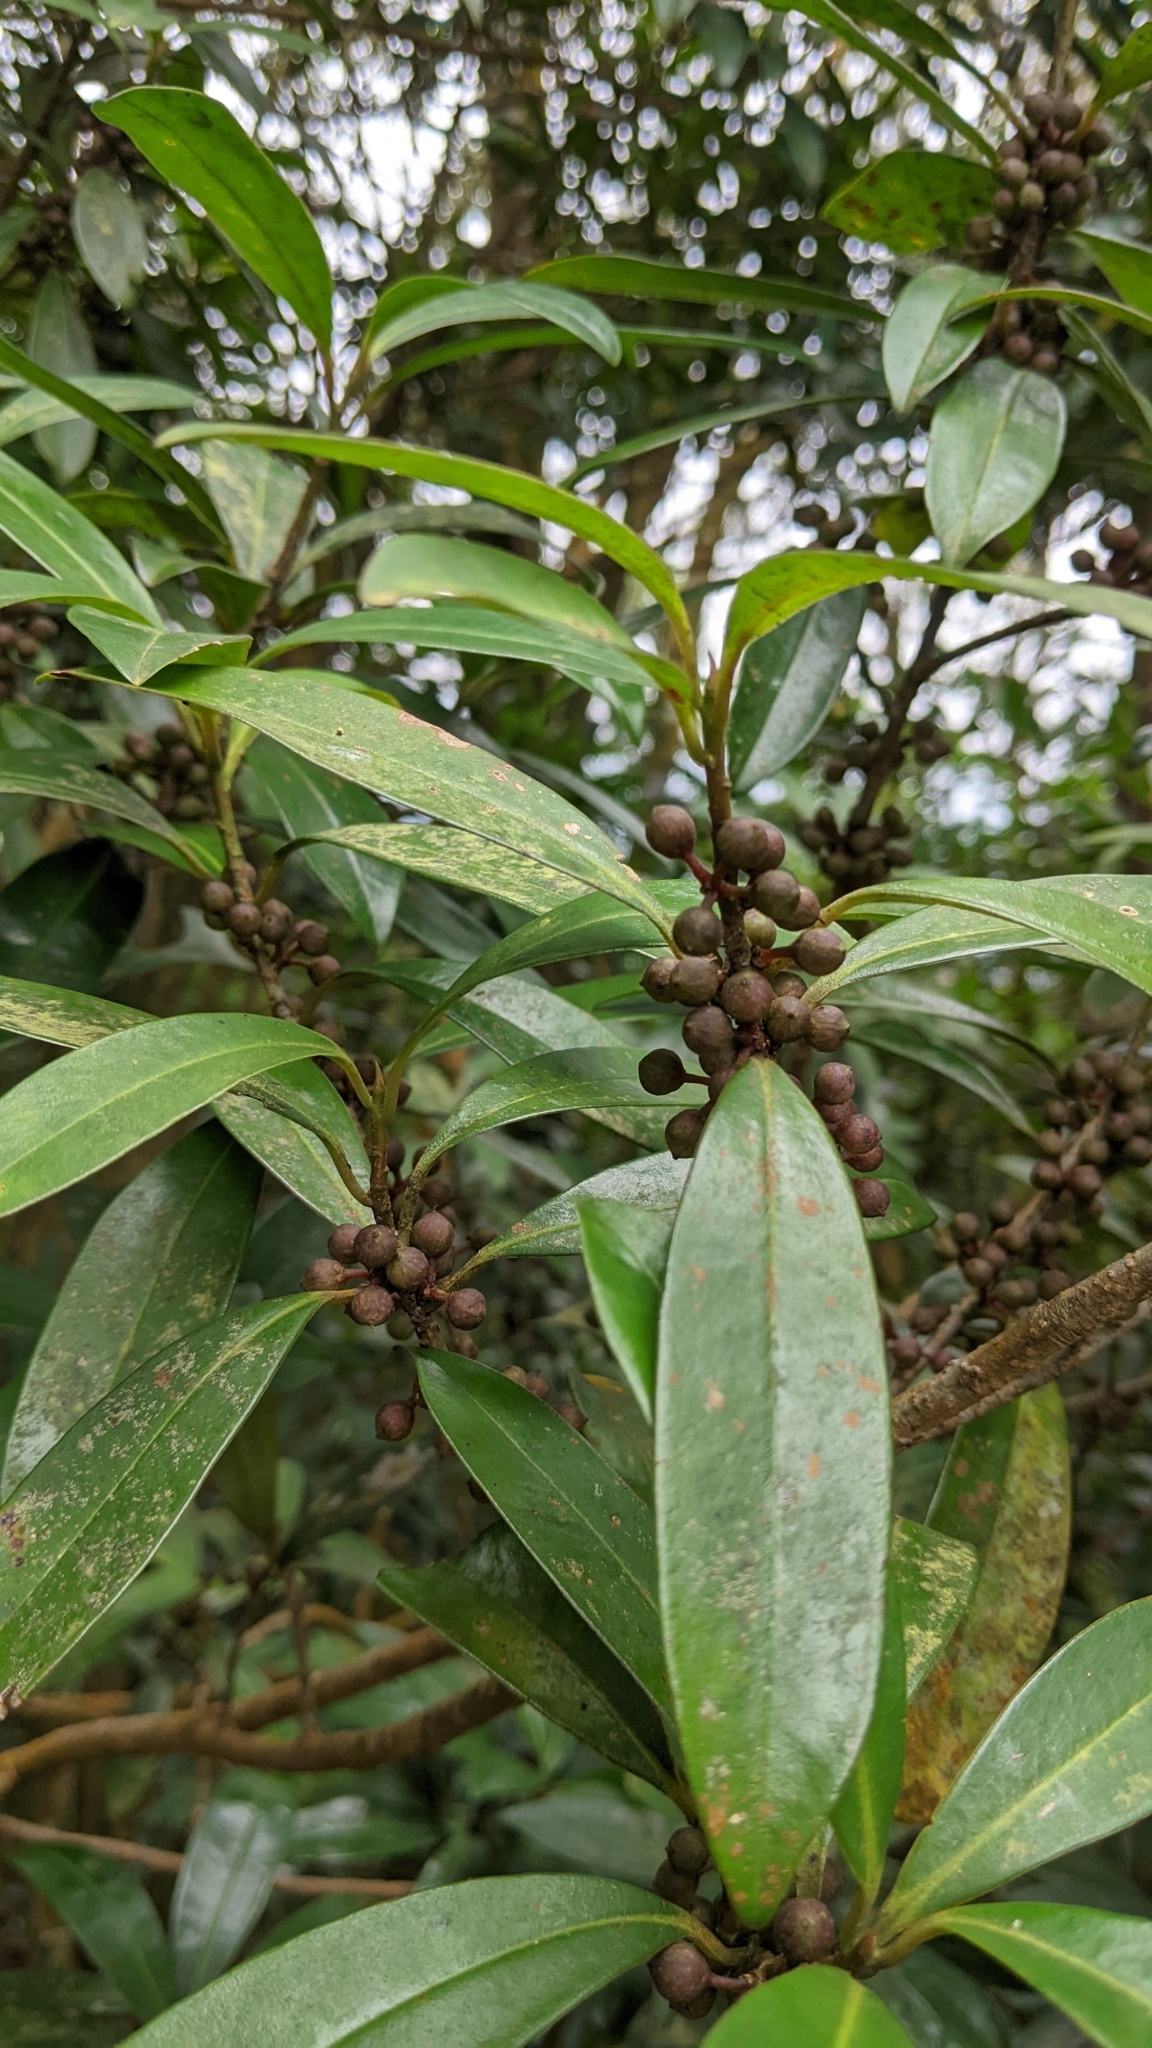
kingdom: Plantae
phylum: Tracheophyta
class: Magnoliopsida
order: Ericales
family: Primulaceae
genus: Myrsine
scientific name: Myrsine seguinii
